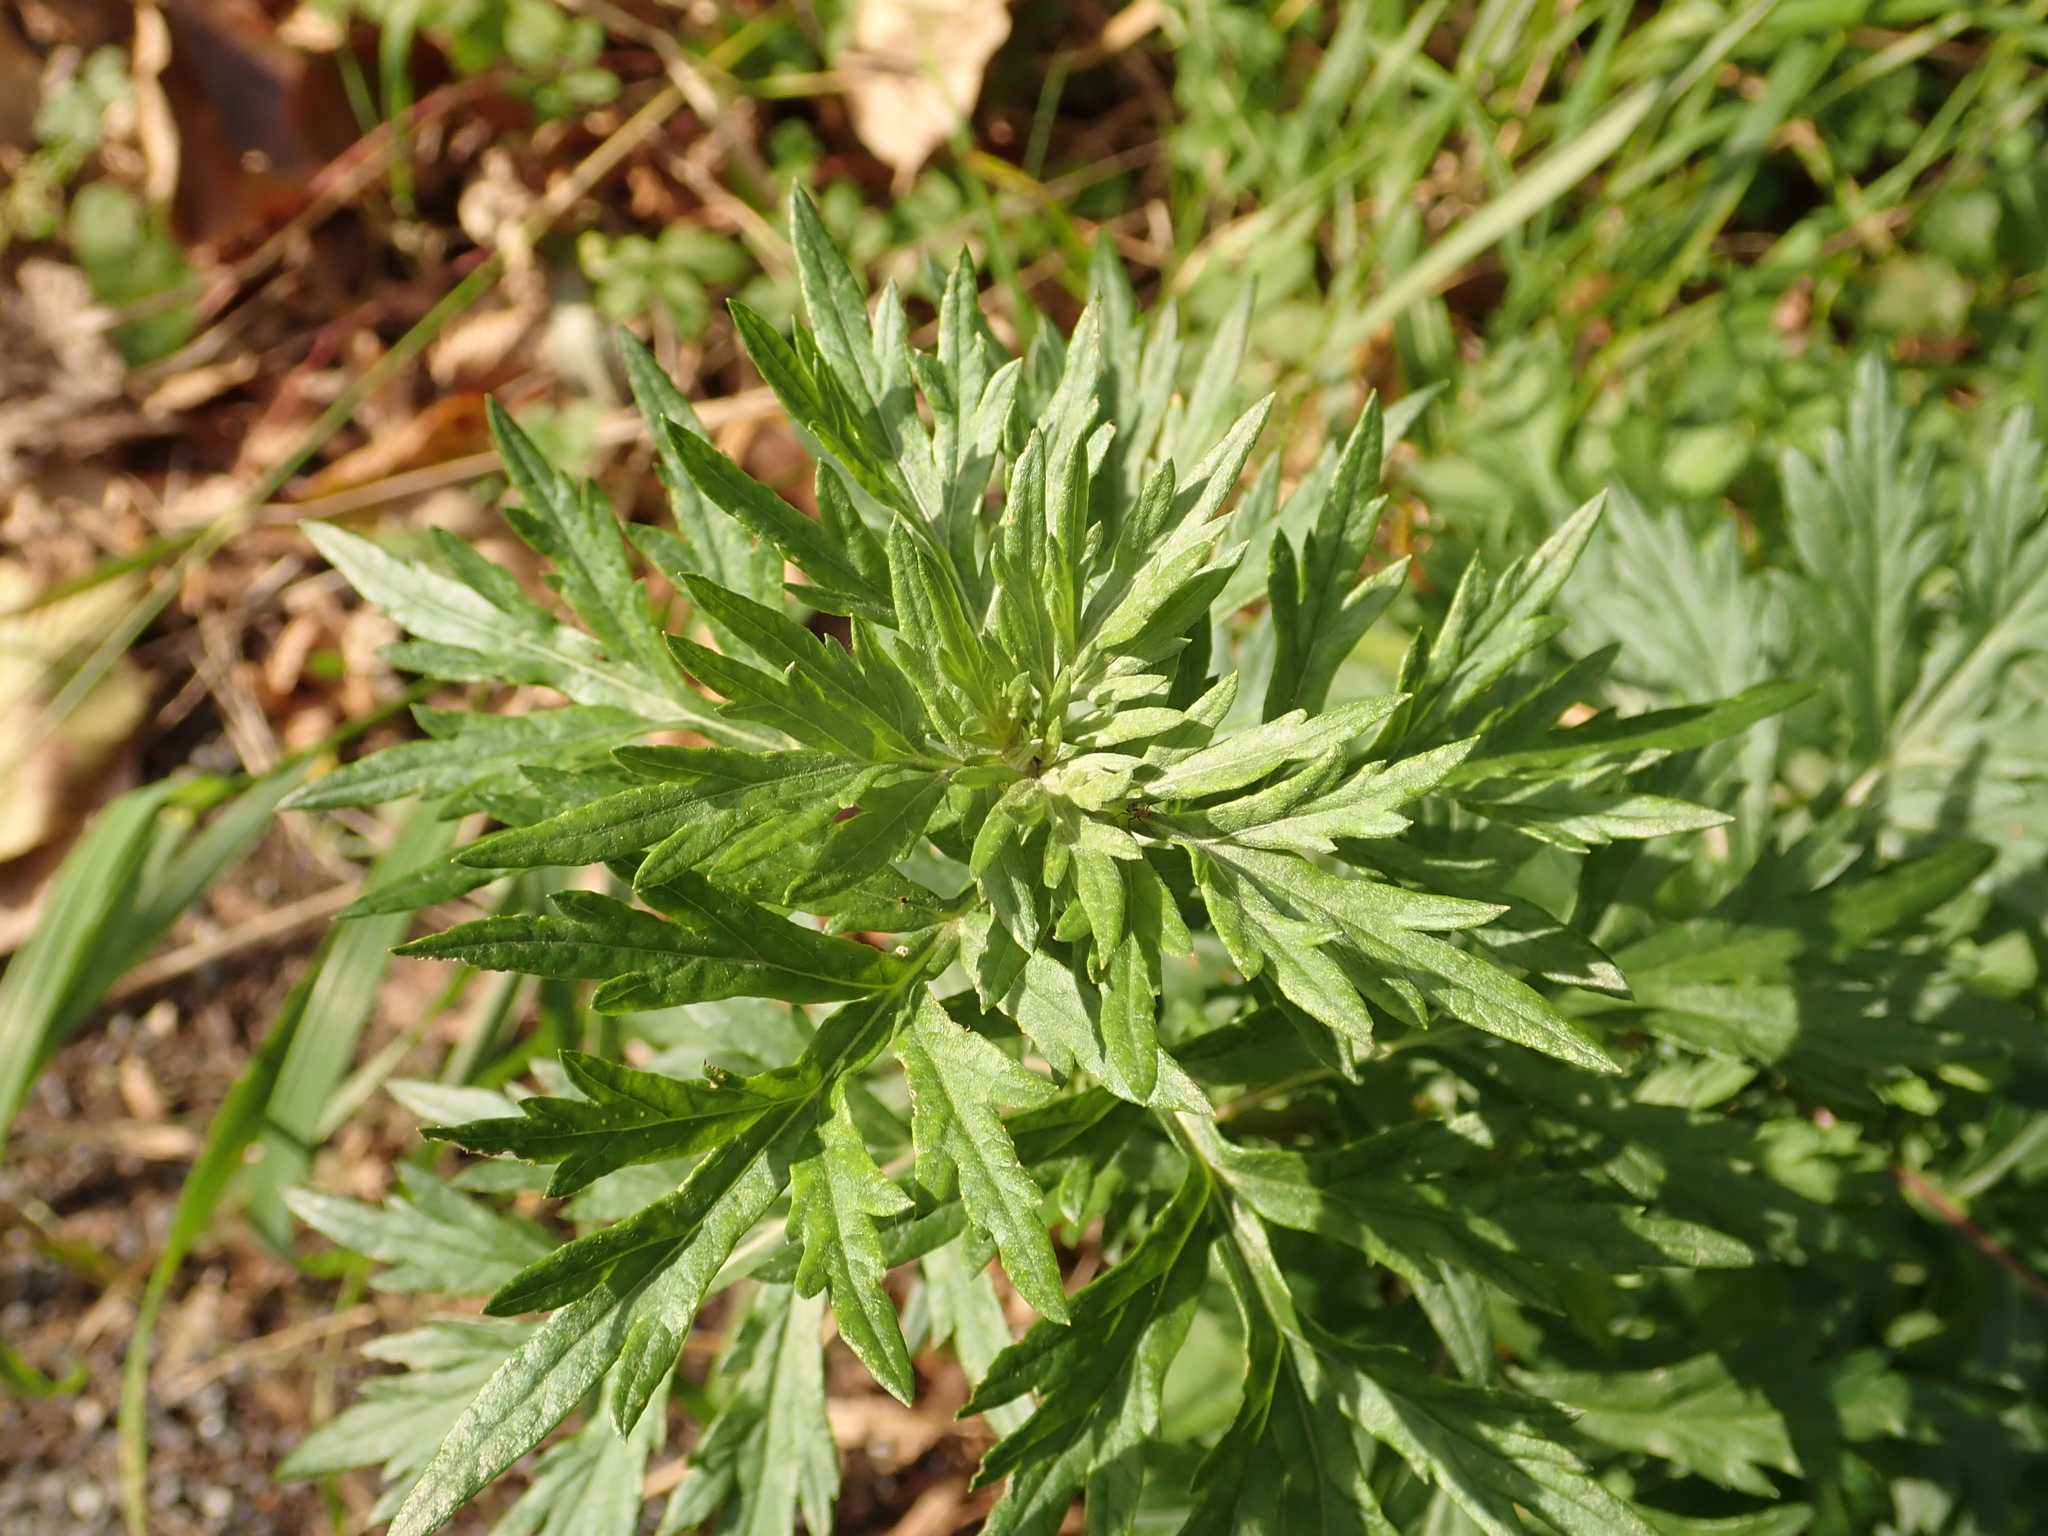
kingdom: Plantae
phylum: Tracheophyta
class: Magnoliopsida
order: Asterales
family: Asteraceae
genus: Artemisia
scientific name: Artemisia vulgaris
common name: Mugwort
